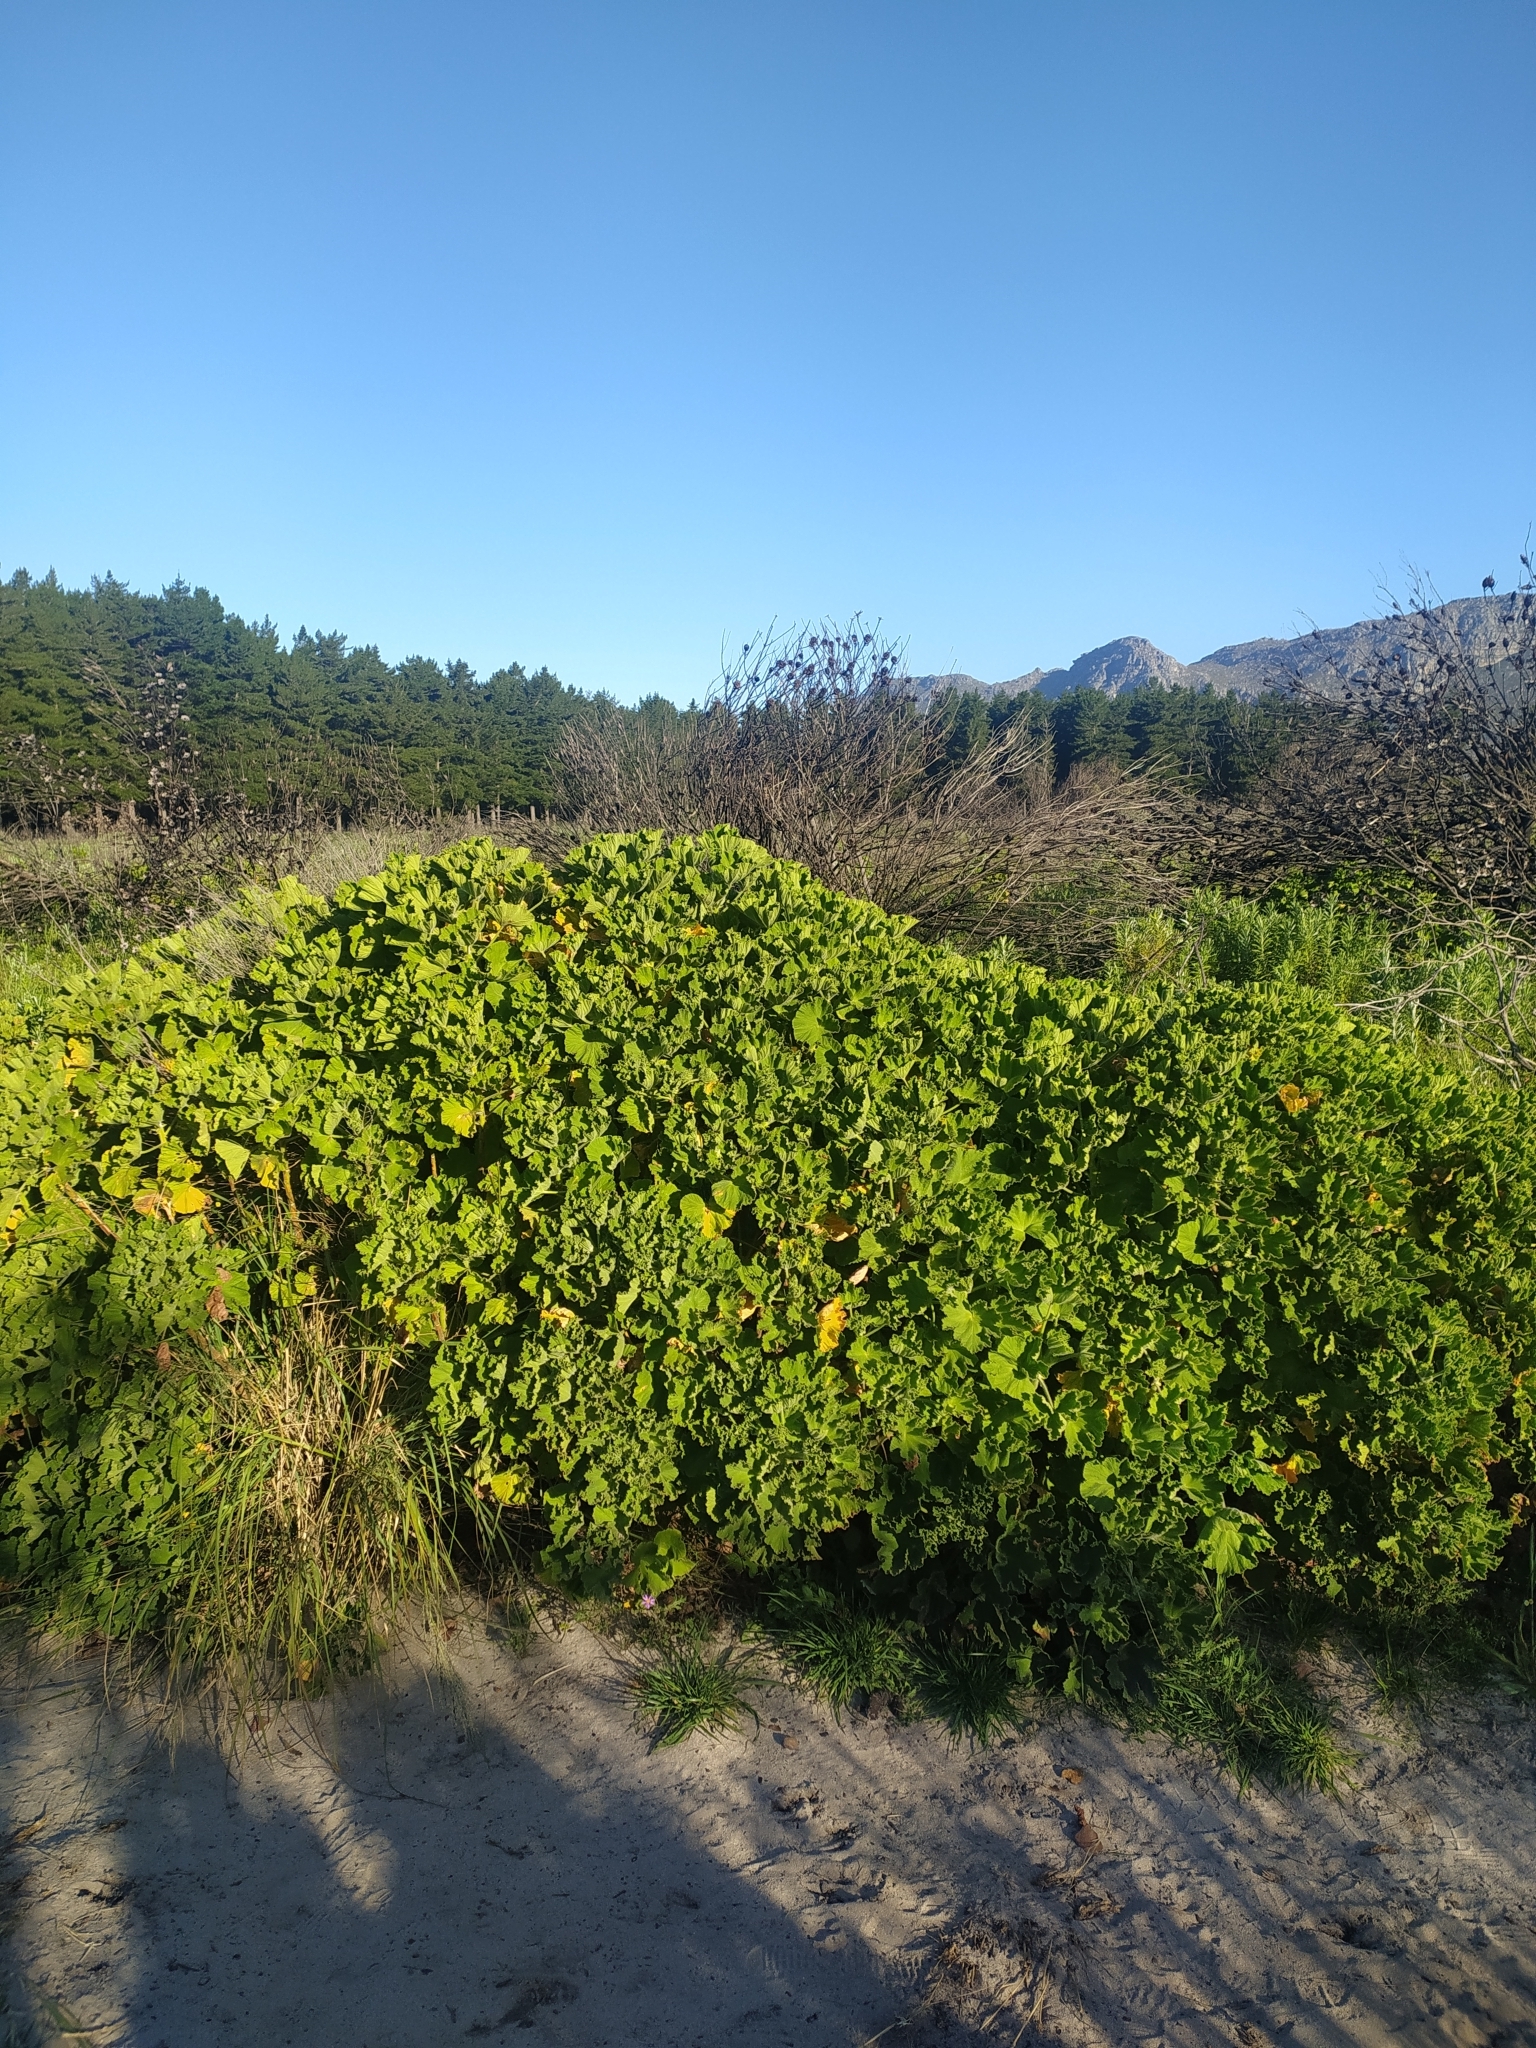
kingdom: Plantae
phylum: Tracheophyta
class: Magnoliopsida
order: Geraniales
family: Geraniaceae
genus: Pelargonium
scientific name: Pelargonium cucullatum
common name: Tree pelargonium
